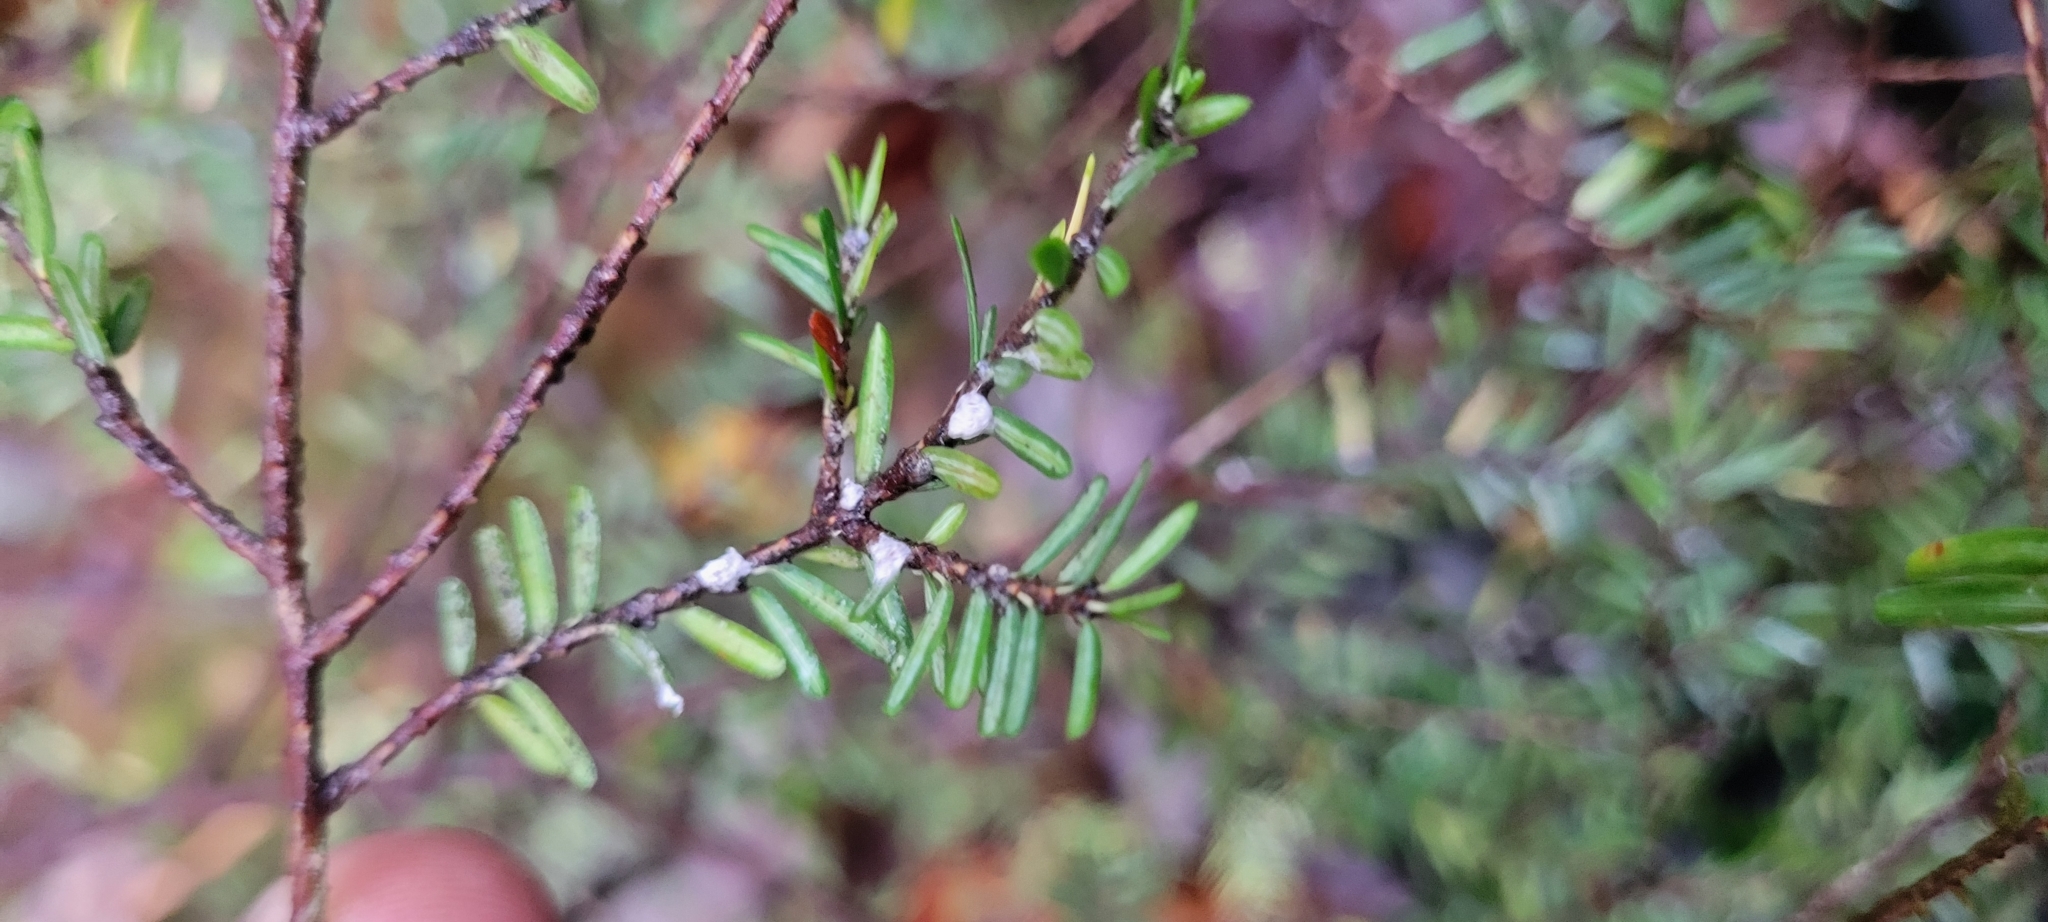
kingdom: Animalia
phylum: Arthropoda
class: Insecta
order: Hemiptera
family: Adelgidae
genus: Adelges
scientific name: Adelges tsugae
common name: Hemlock woolly adelgid
